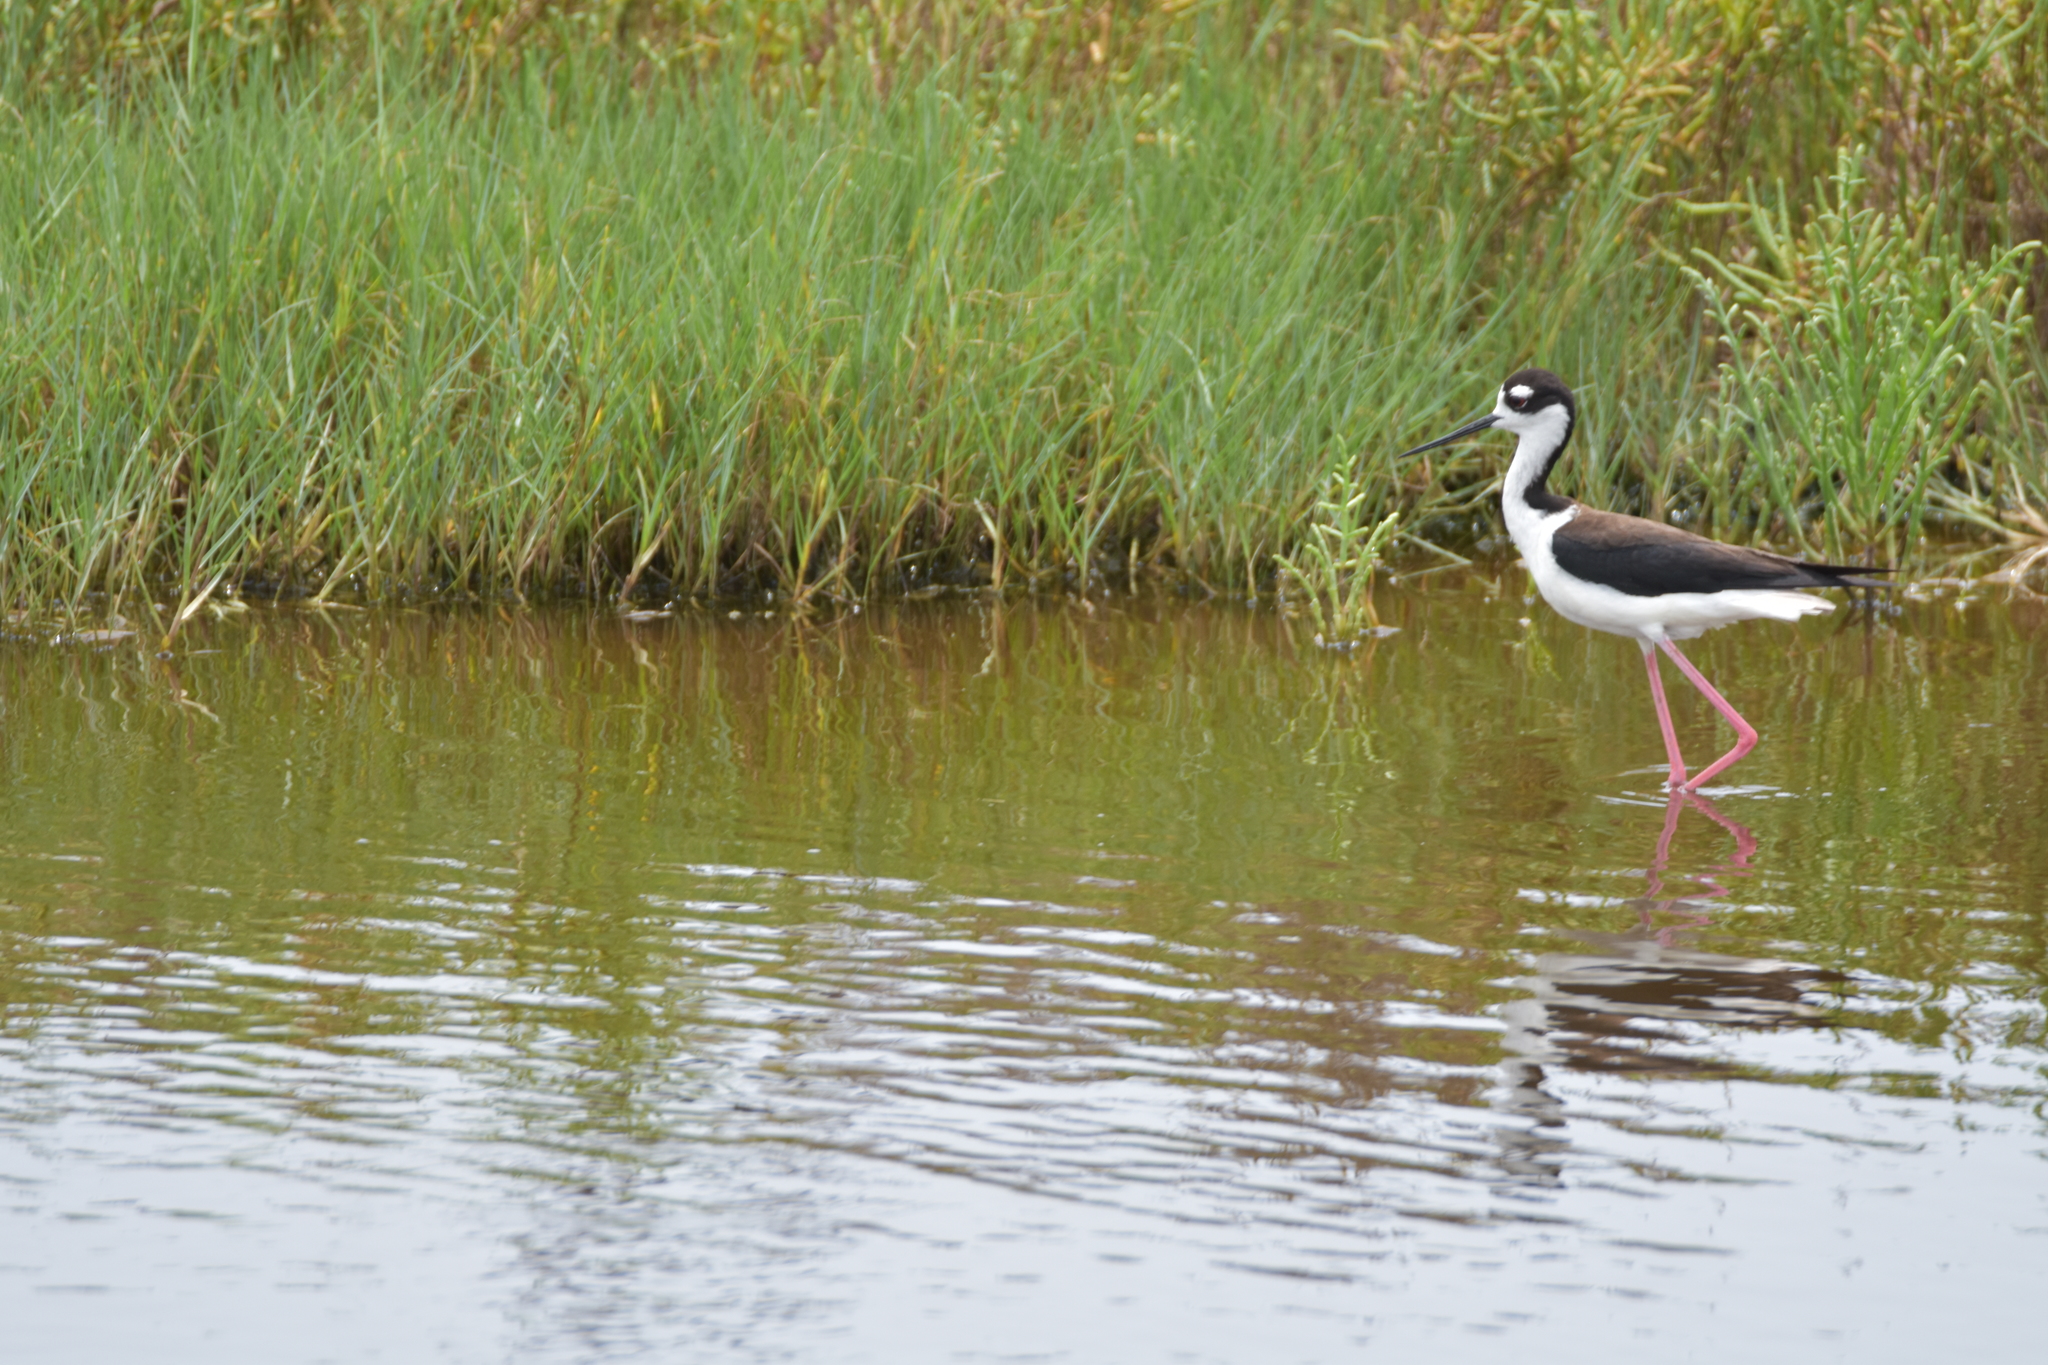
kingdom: Animalia
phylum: Chordata
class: Aves
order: Charadriiformes
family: Recurvirostridae
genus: Himantopus
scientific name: Himantopus mexicanus
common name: Black-necked stilt
